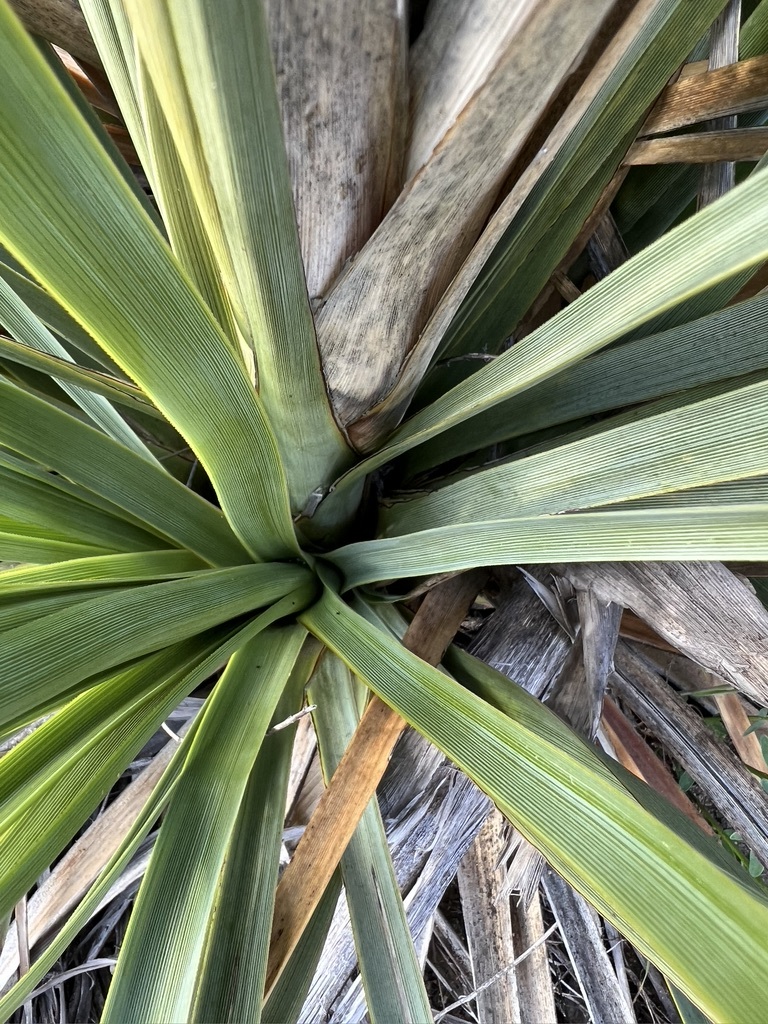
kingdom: Plantae
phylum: Tracheophyta
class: Liliopsida
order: Asparagales
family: Asparagaceae
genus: Nolina
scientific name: Nolina cismontana
